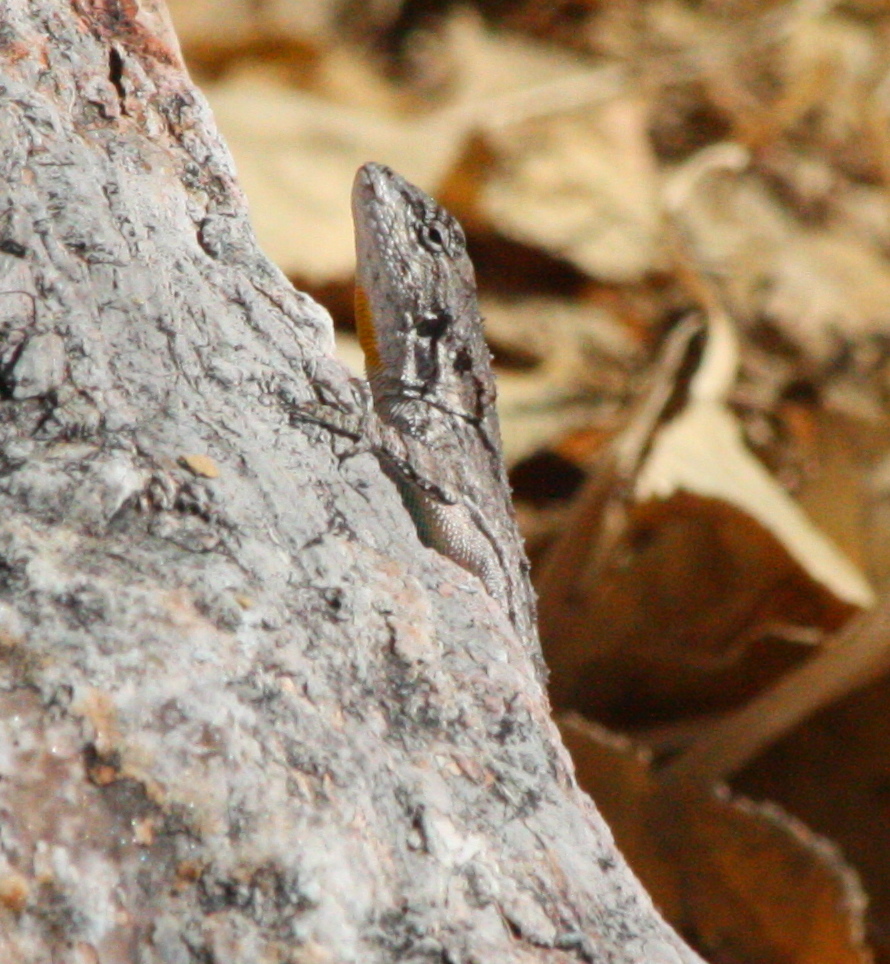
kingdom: Animalia
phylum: Chordata
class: Squamata
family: Phrynosomatidae
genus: Urosaurus
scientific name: Urosaurus bicarinatus
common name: Tropical tree lizard
